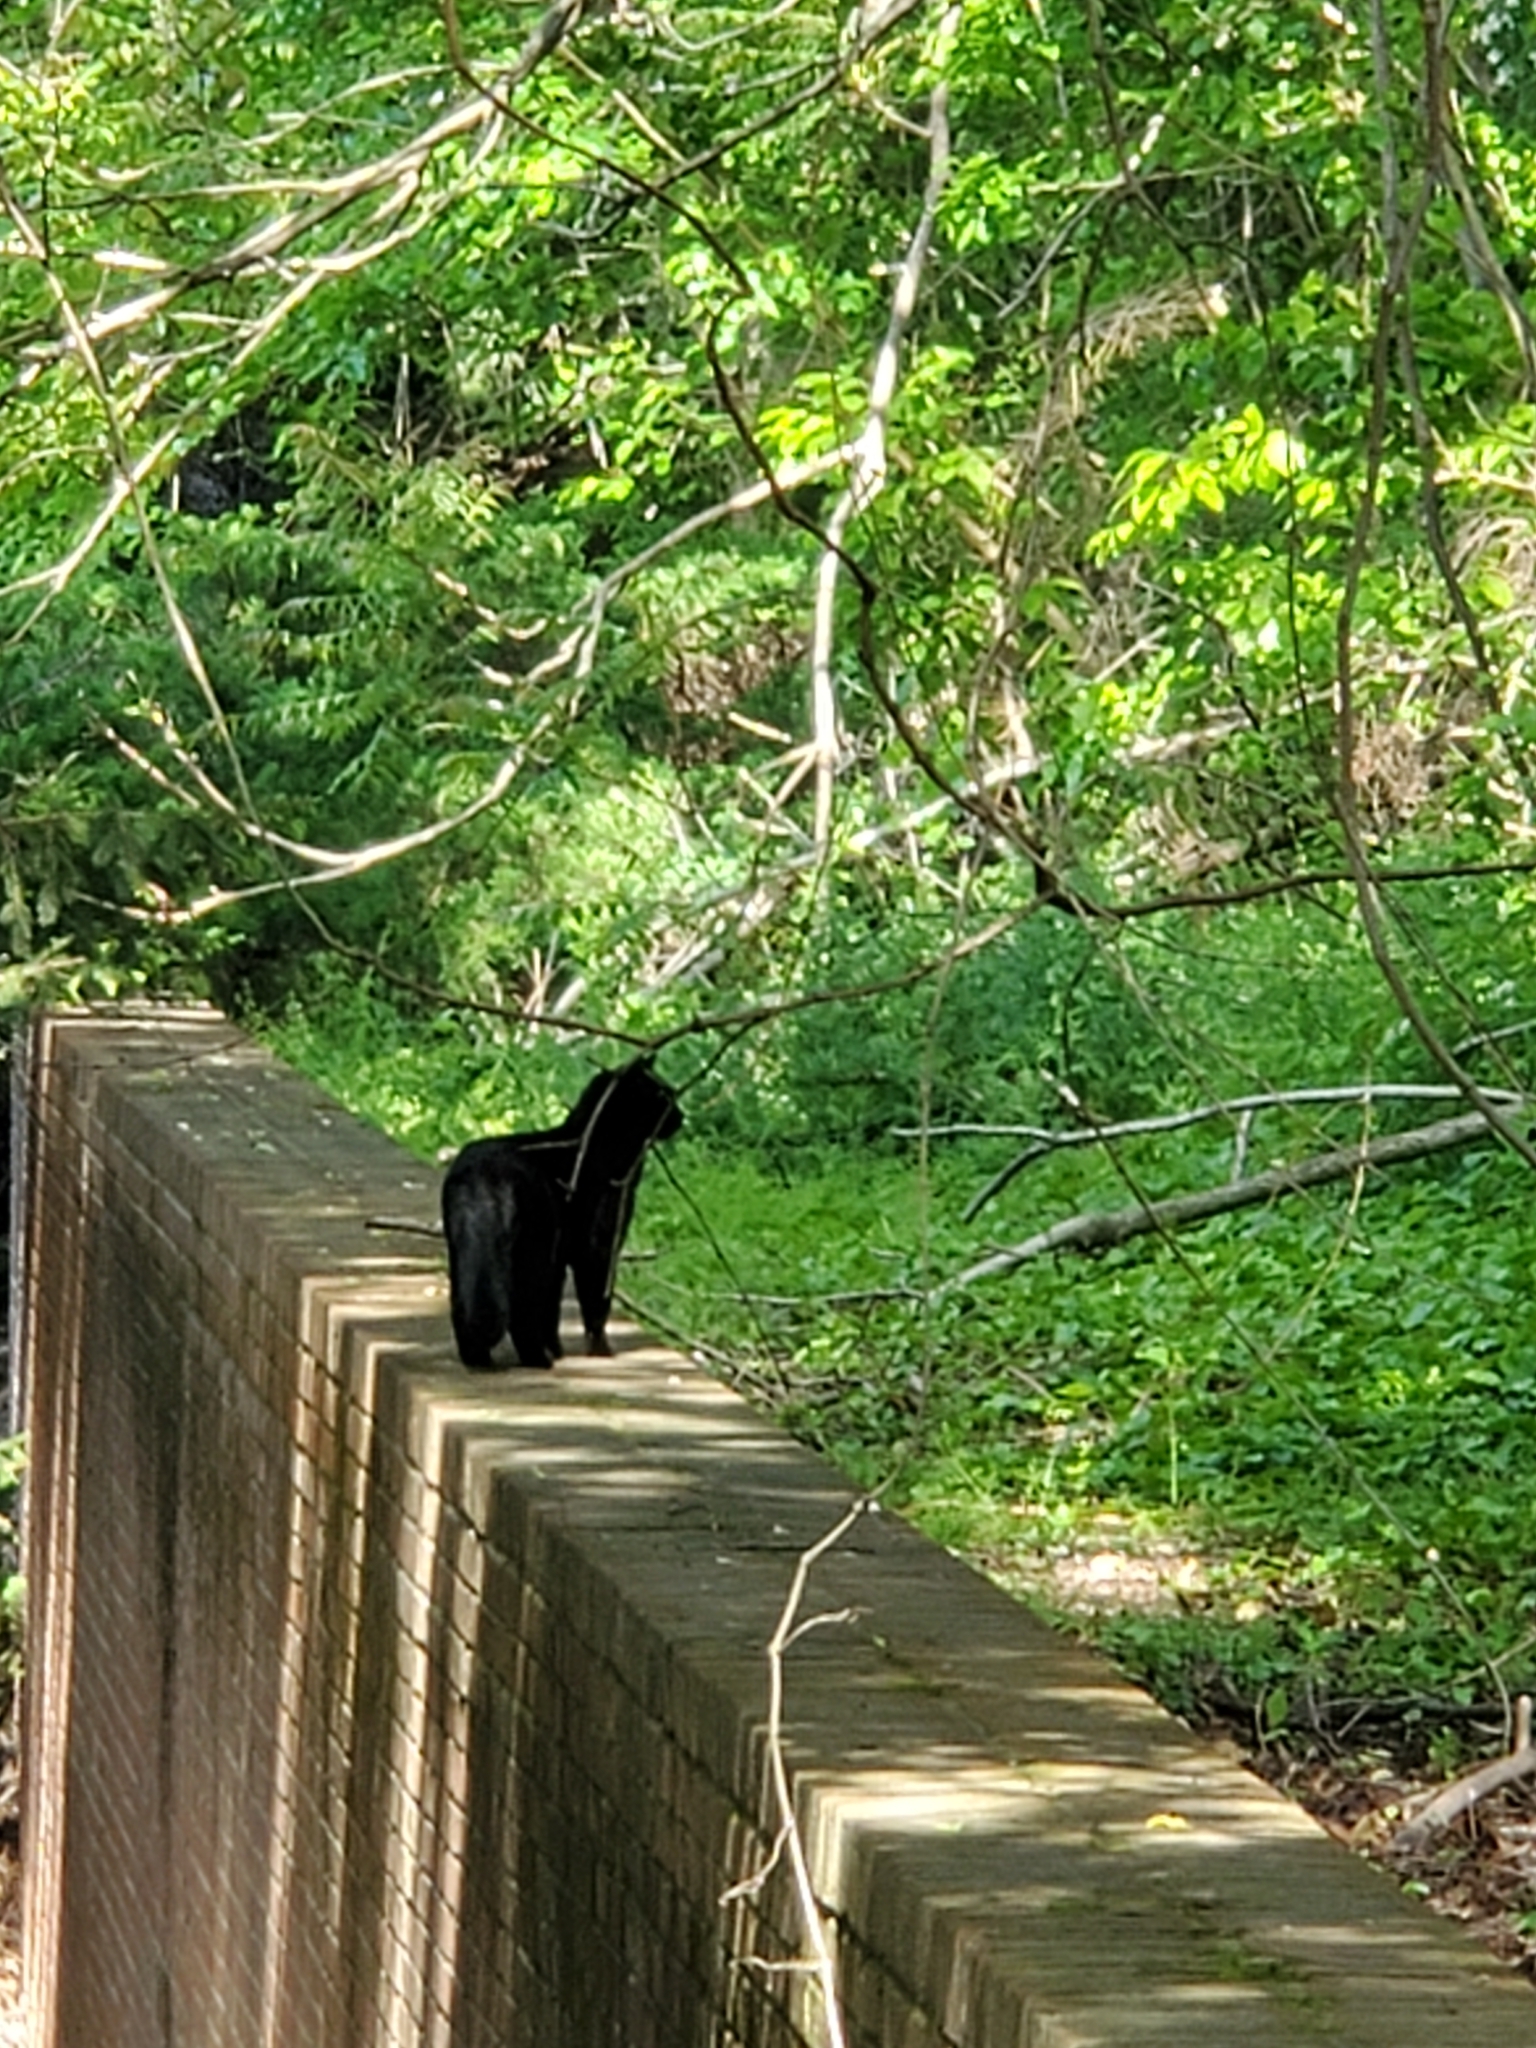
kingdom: Animalia
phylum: Chordata
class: Mammalia
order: Carnivora
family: Felidae
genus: Felis
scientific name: Felis catus
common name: Domestic cat
